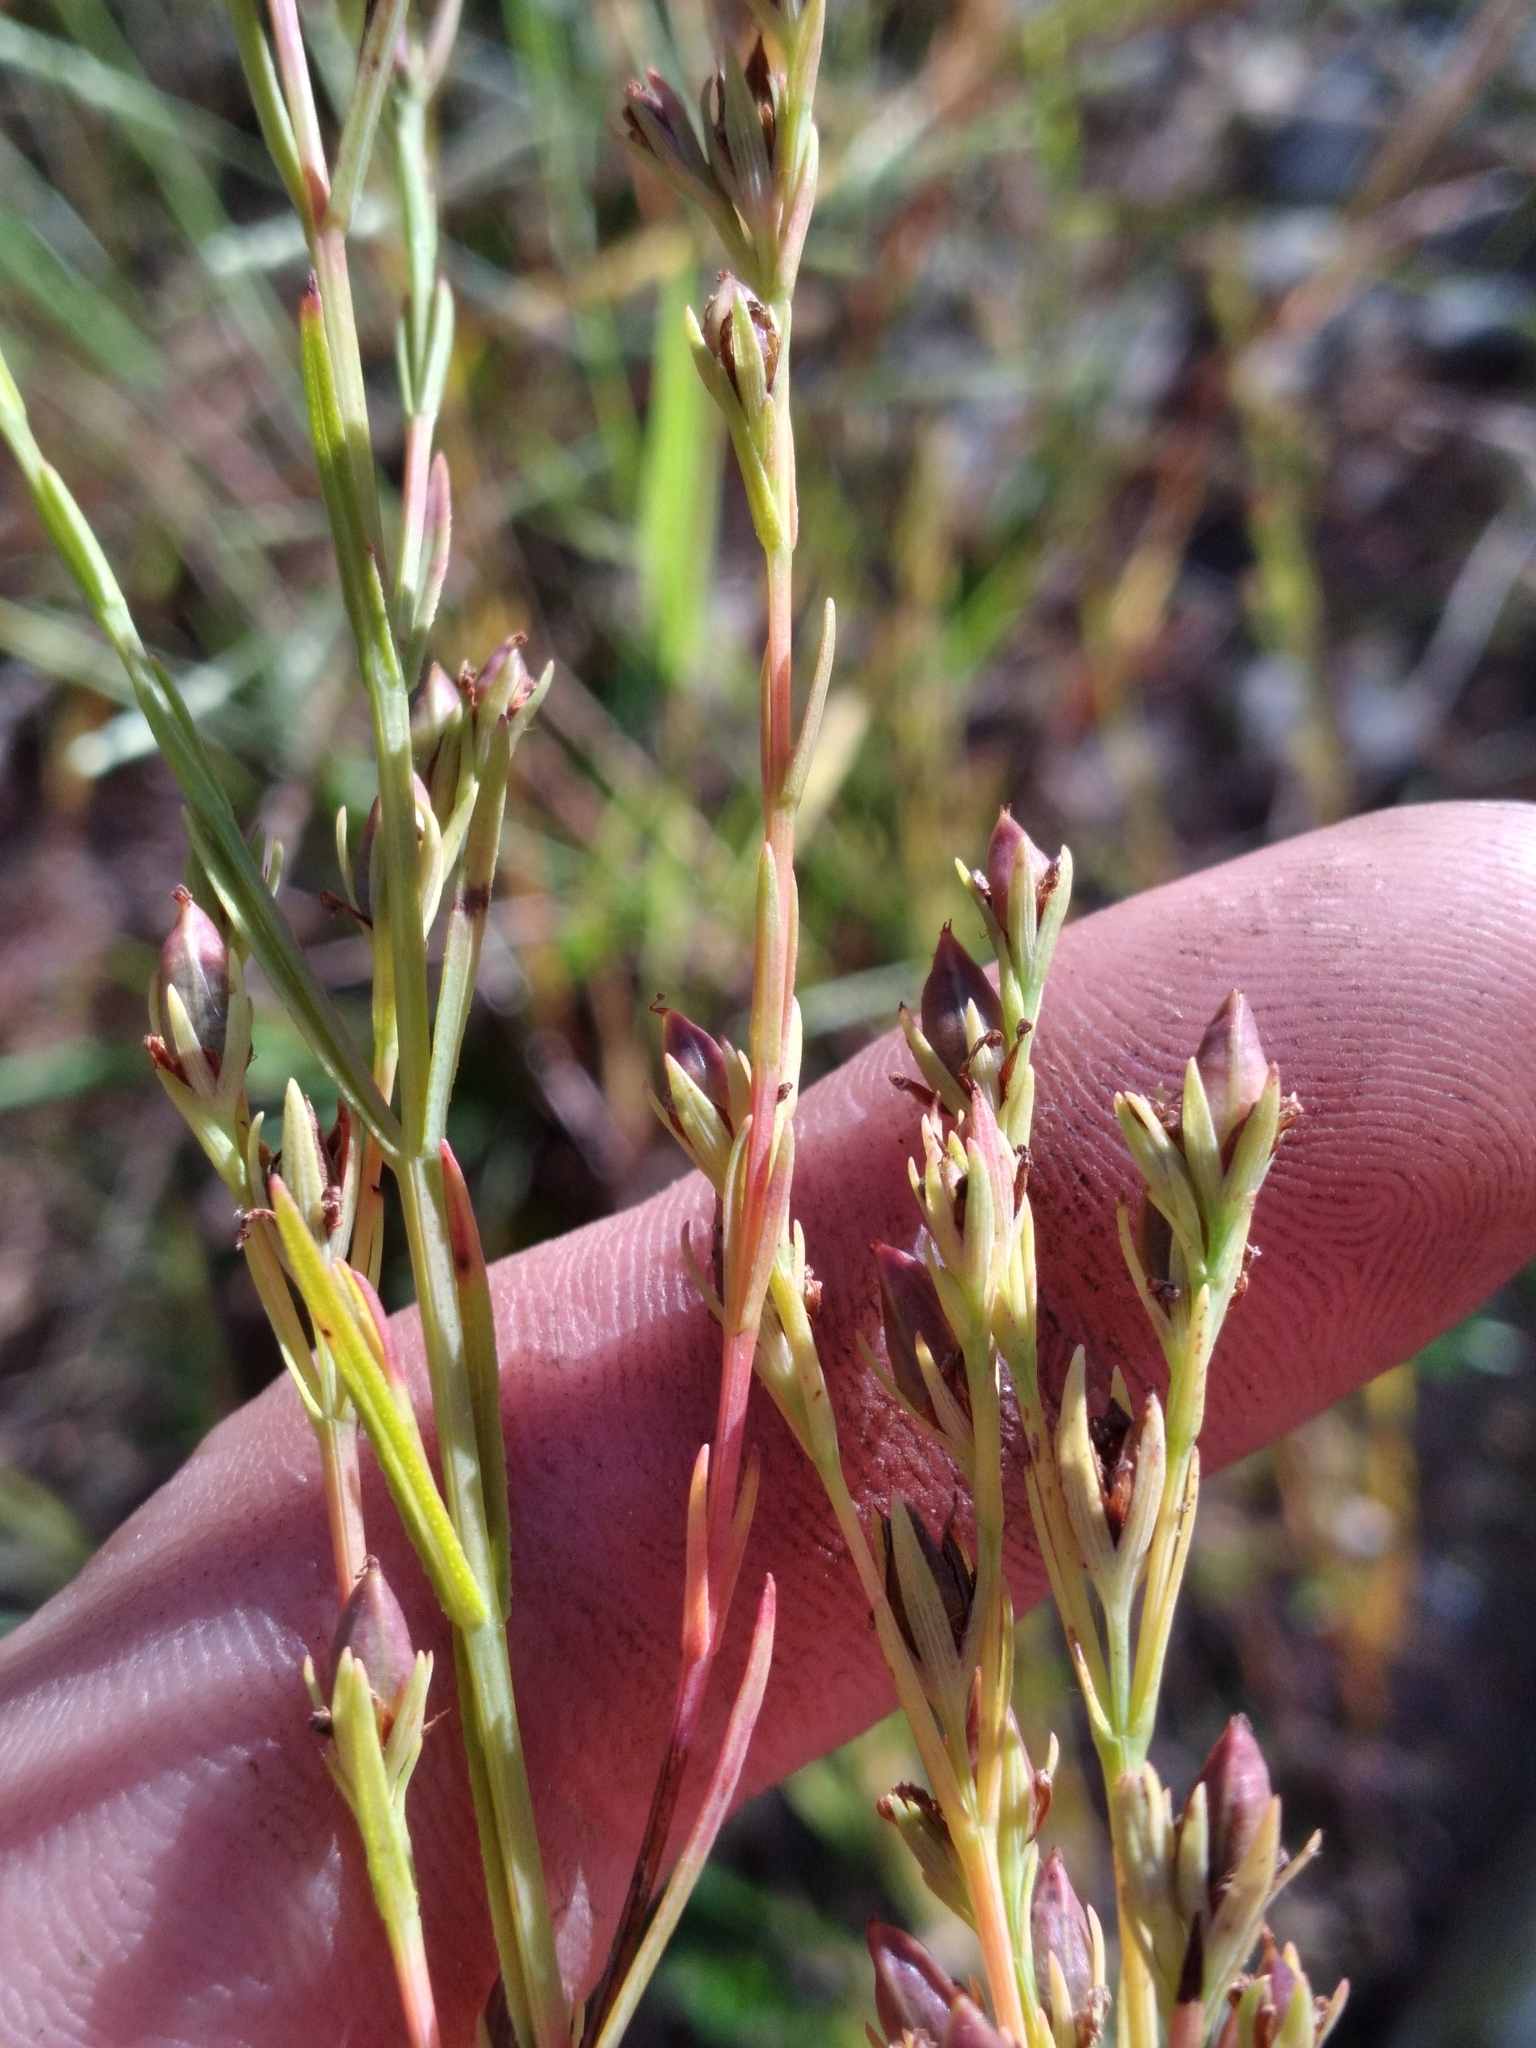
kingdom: Plantae
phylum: Tracheophyta
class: Magnoliopsida
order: Malpighiales
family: Hypericaceae
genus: Hypericum
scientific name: Hypericum drummondii
